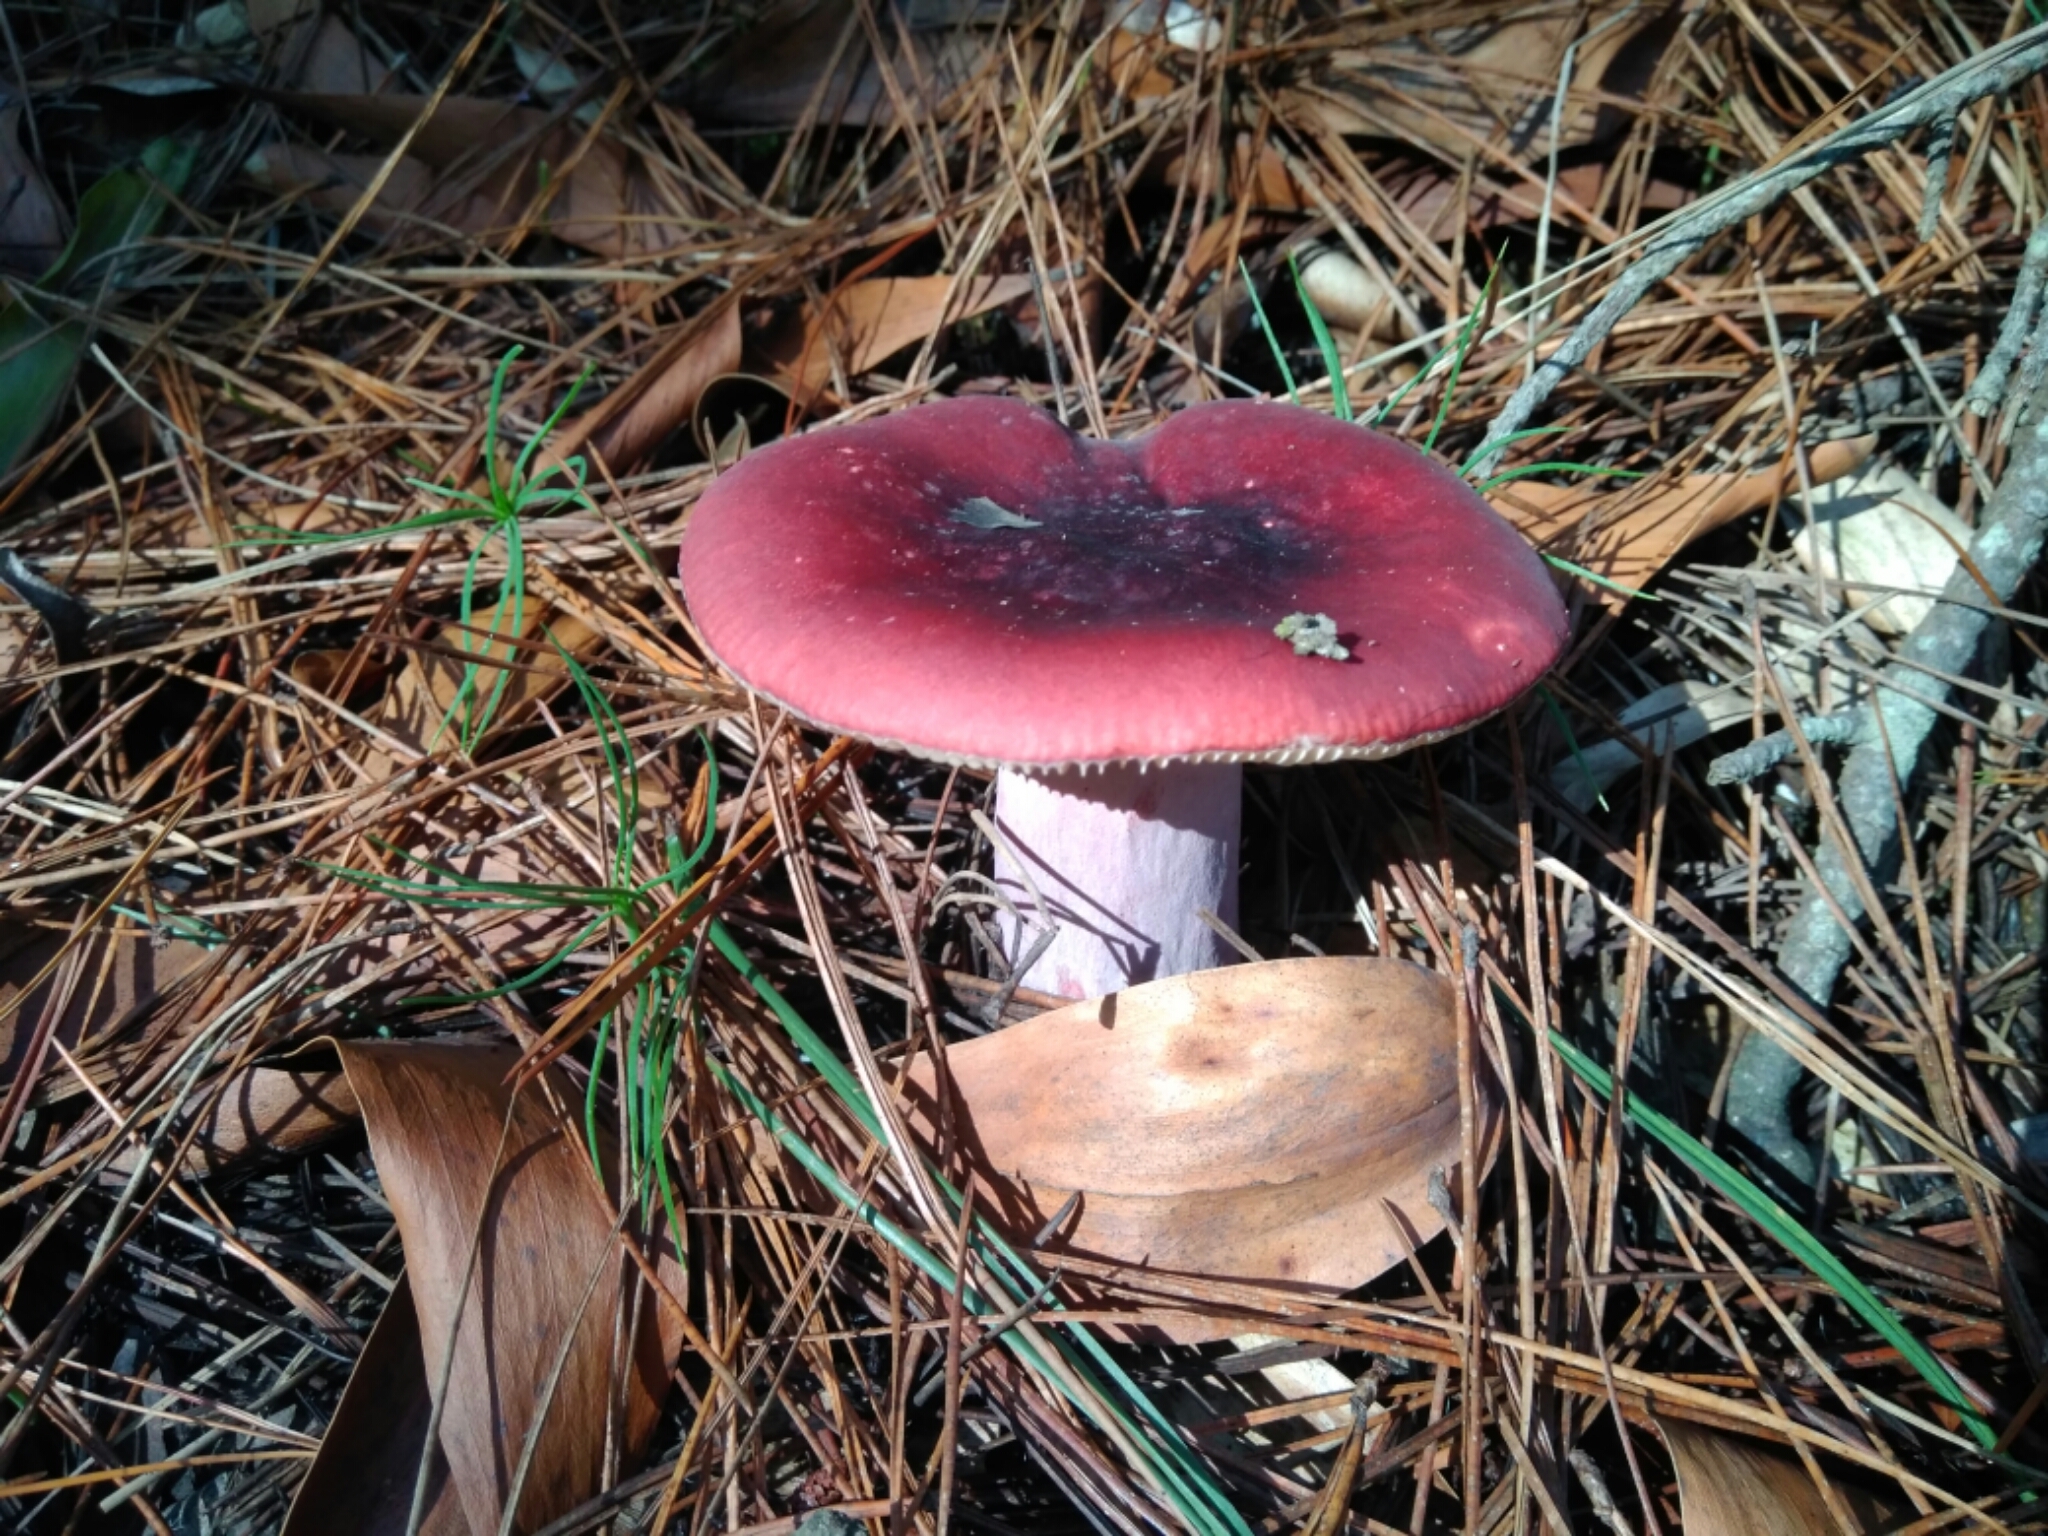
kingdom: Fungi
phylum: Basidiomycota
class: Agaricomycetes
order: Russulales
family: Russulaceae
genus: Russula
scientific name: Russula sardonia
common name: Primrose brittlegill
